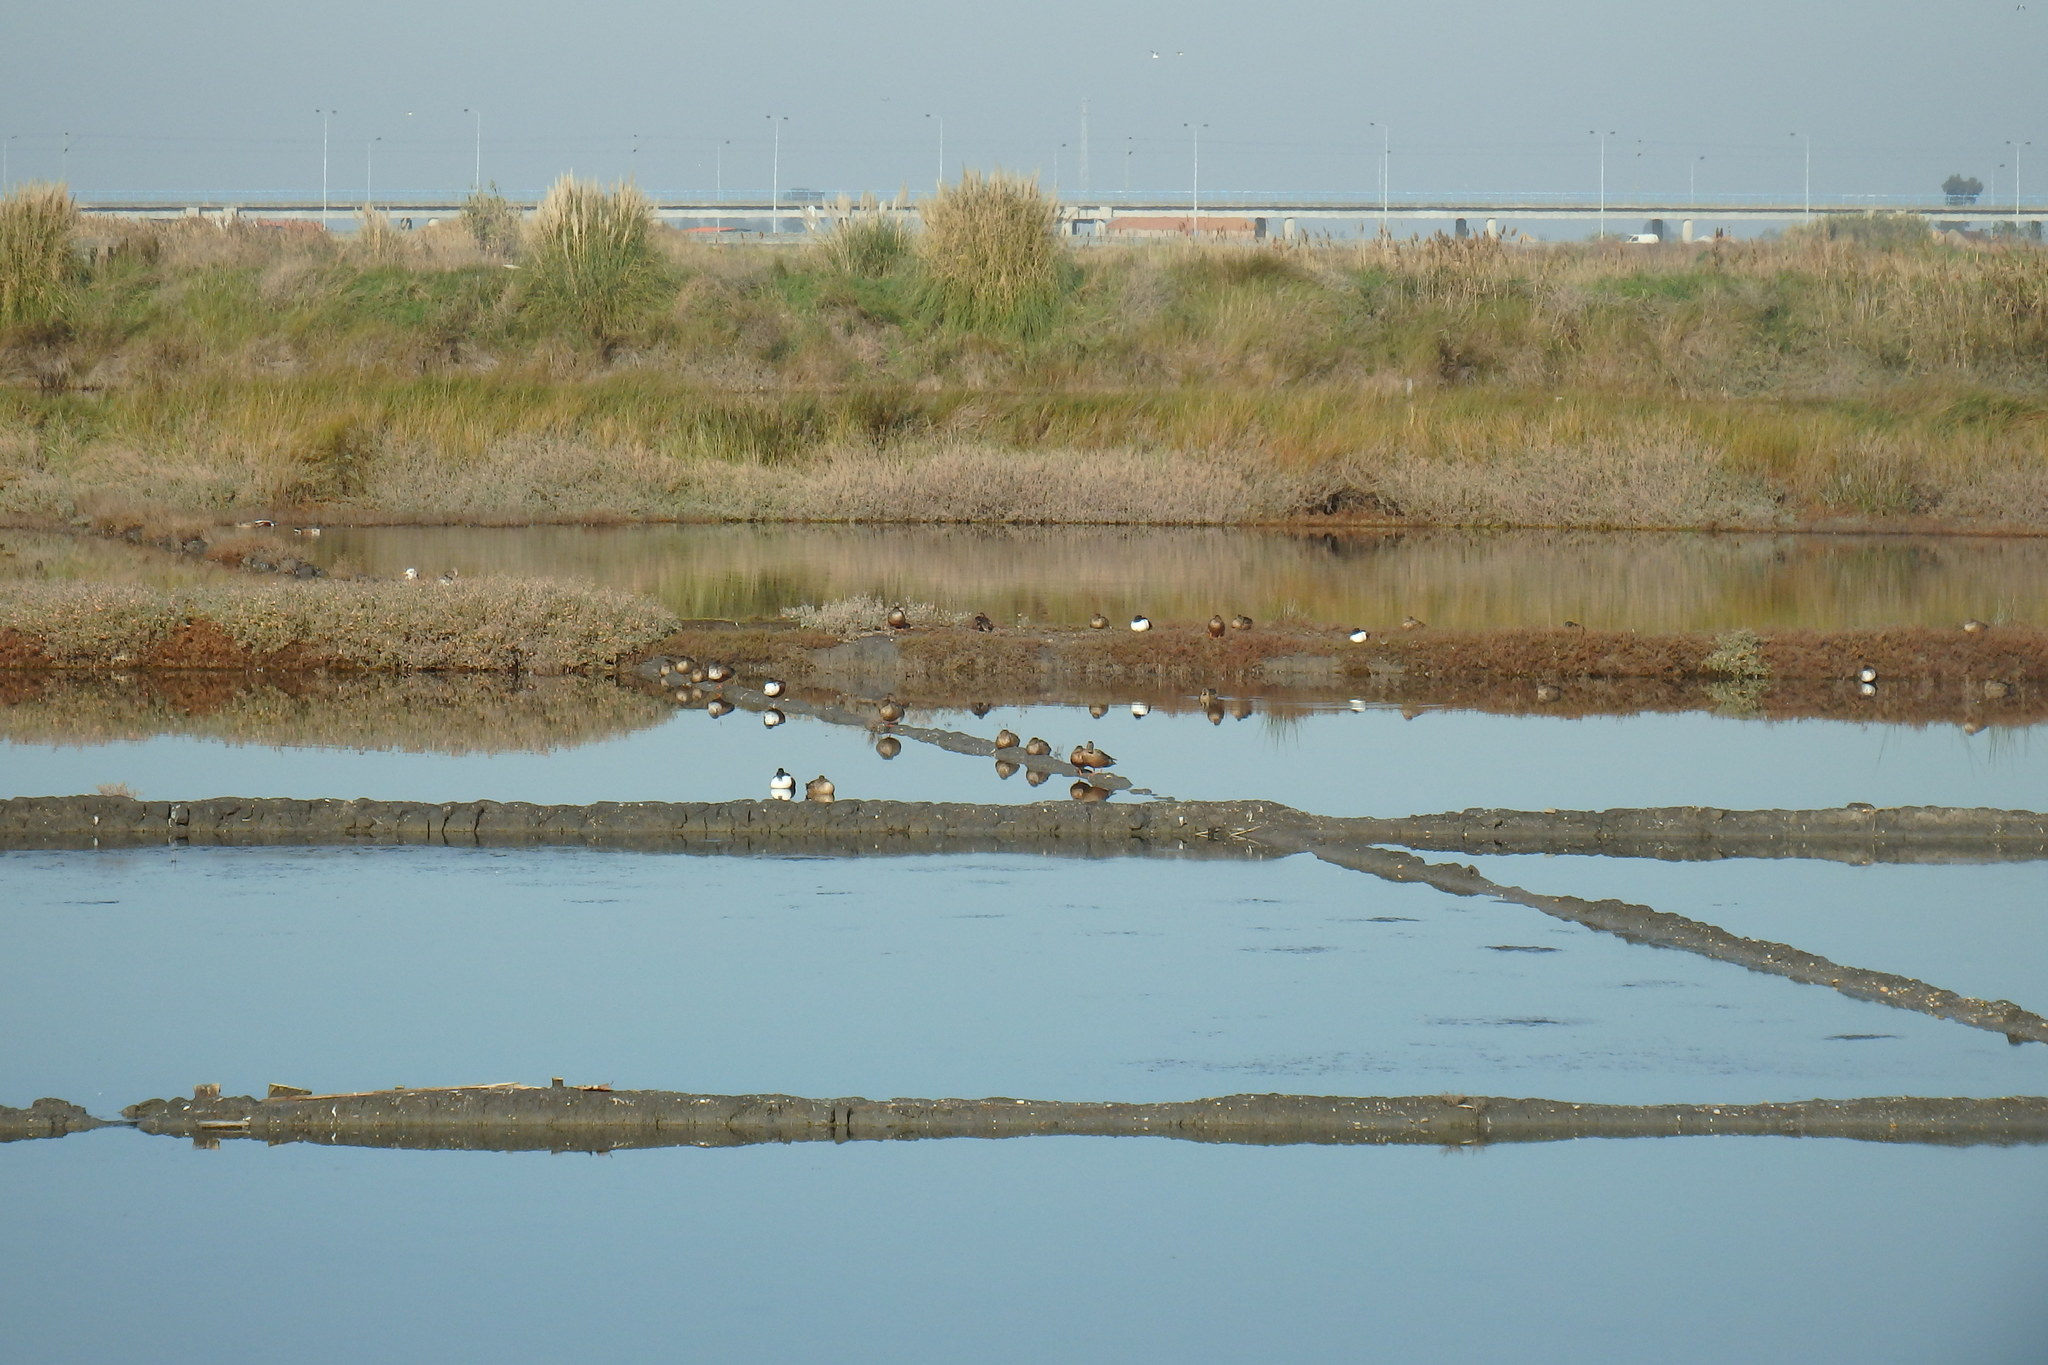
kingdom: Animalia
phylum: Chordata
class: Aves
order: Anseriformes
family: Anatidae
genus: Spatula
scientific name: Spatula clypeata
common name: Northern shoveler
